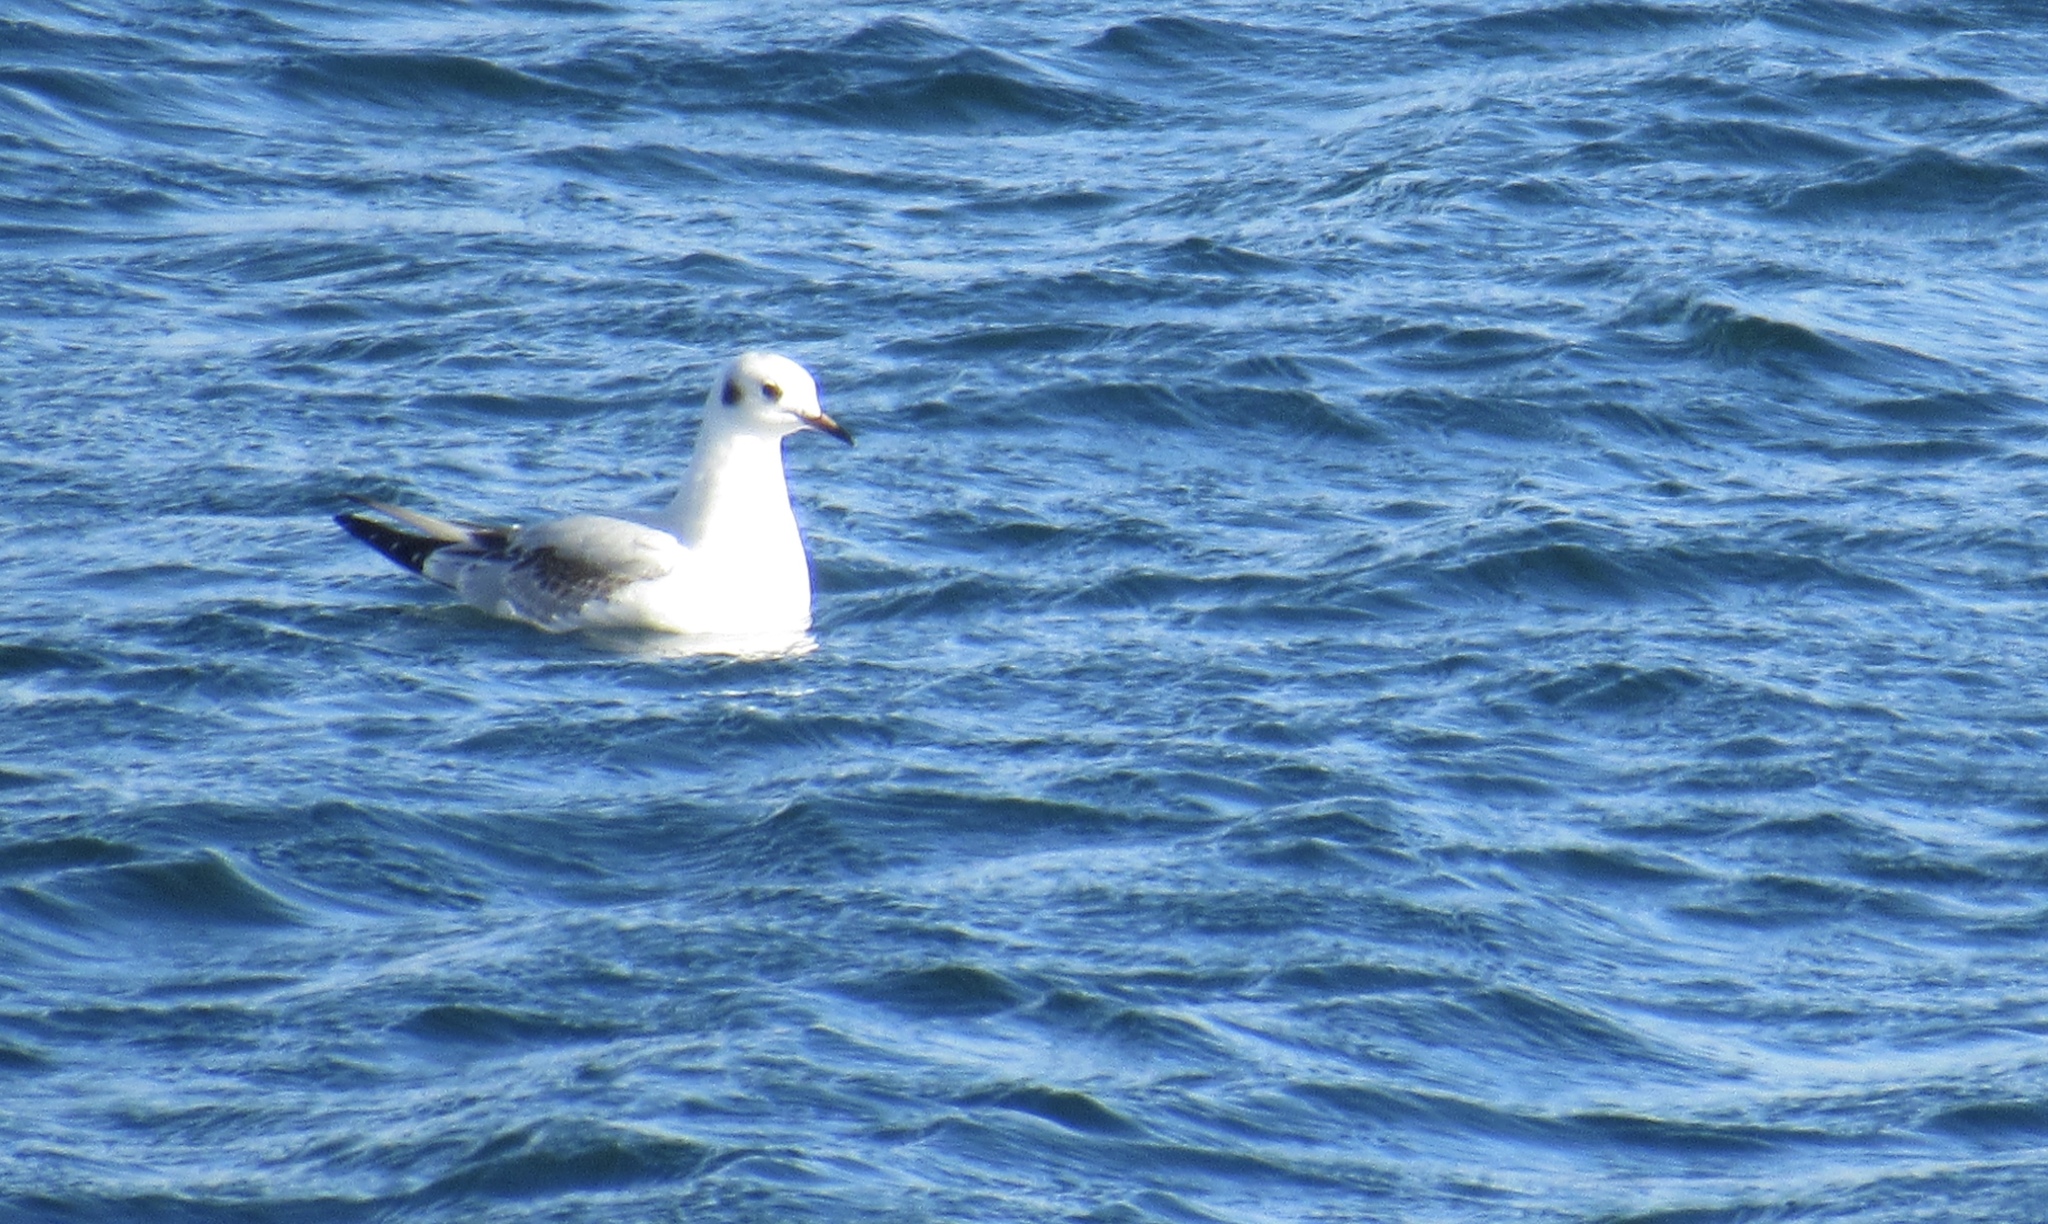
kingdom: Animalia
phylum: Chordata
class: Aves
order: Charadriiformes
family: Laridae
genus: Chroicocephalus
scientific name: Chroicocephalus philadelphia
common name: Bonaparte's gull
